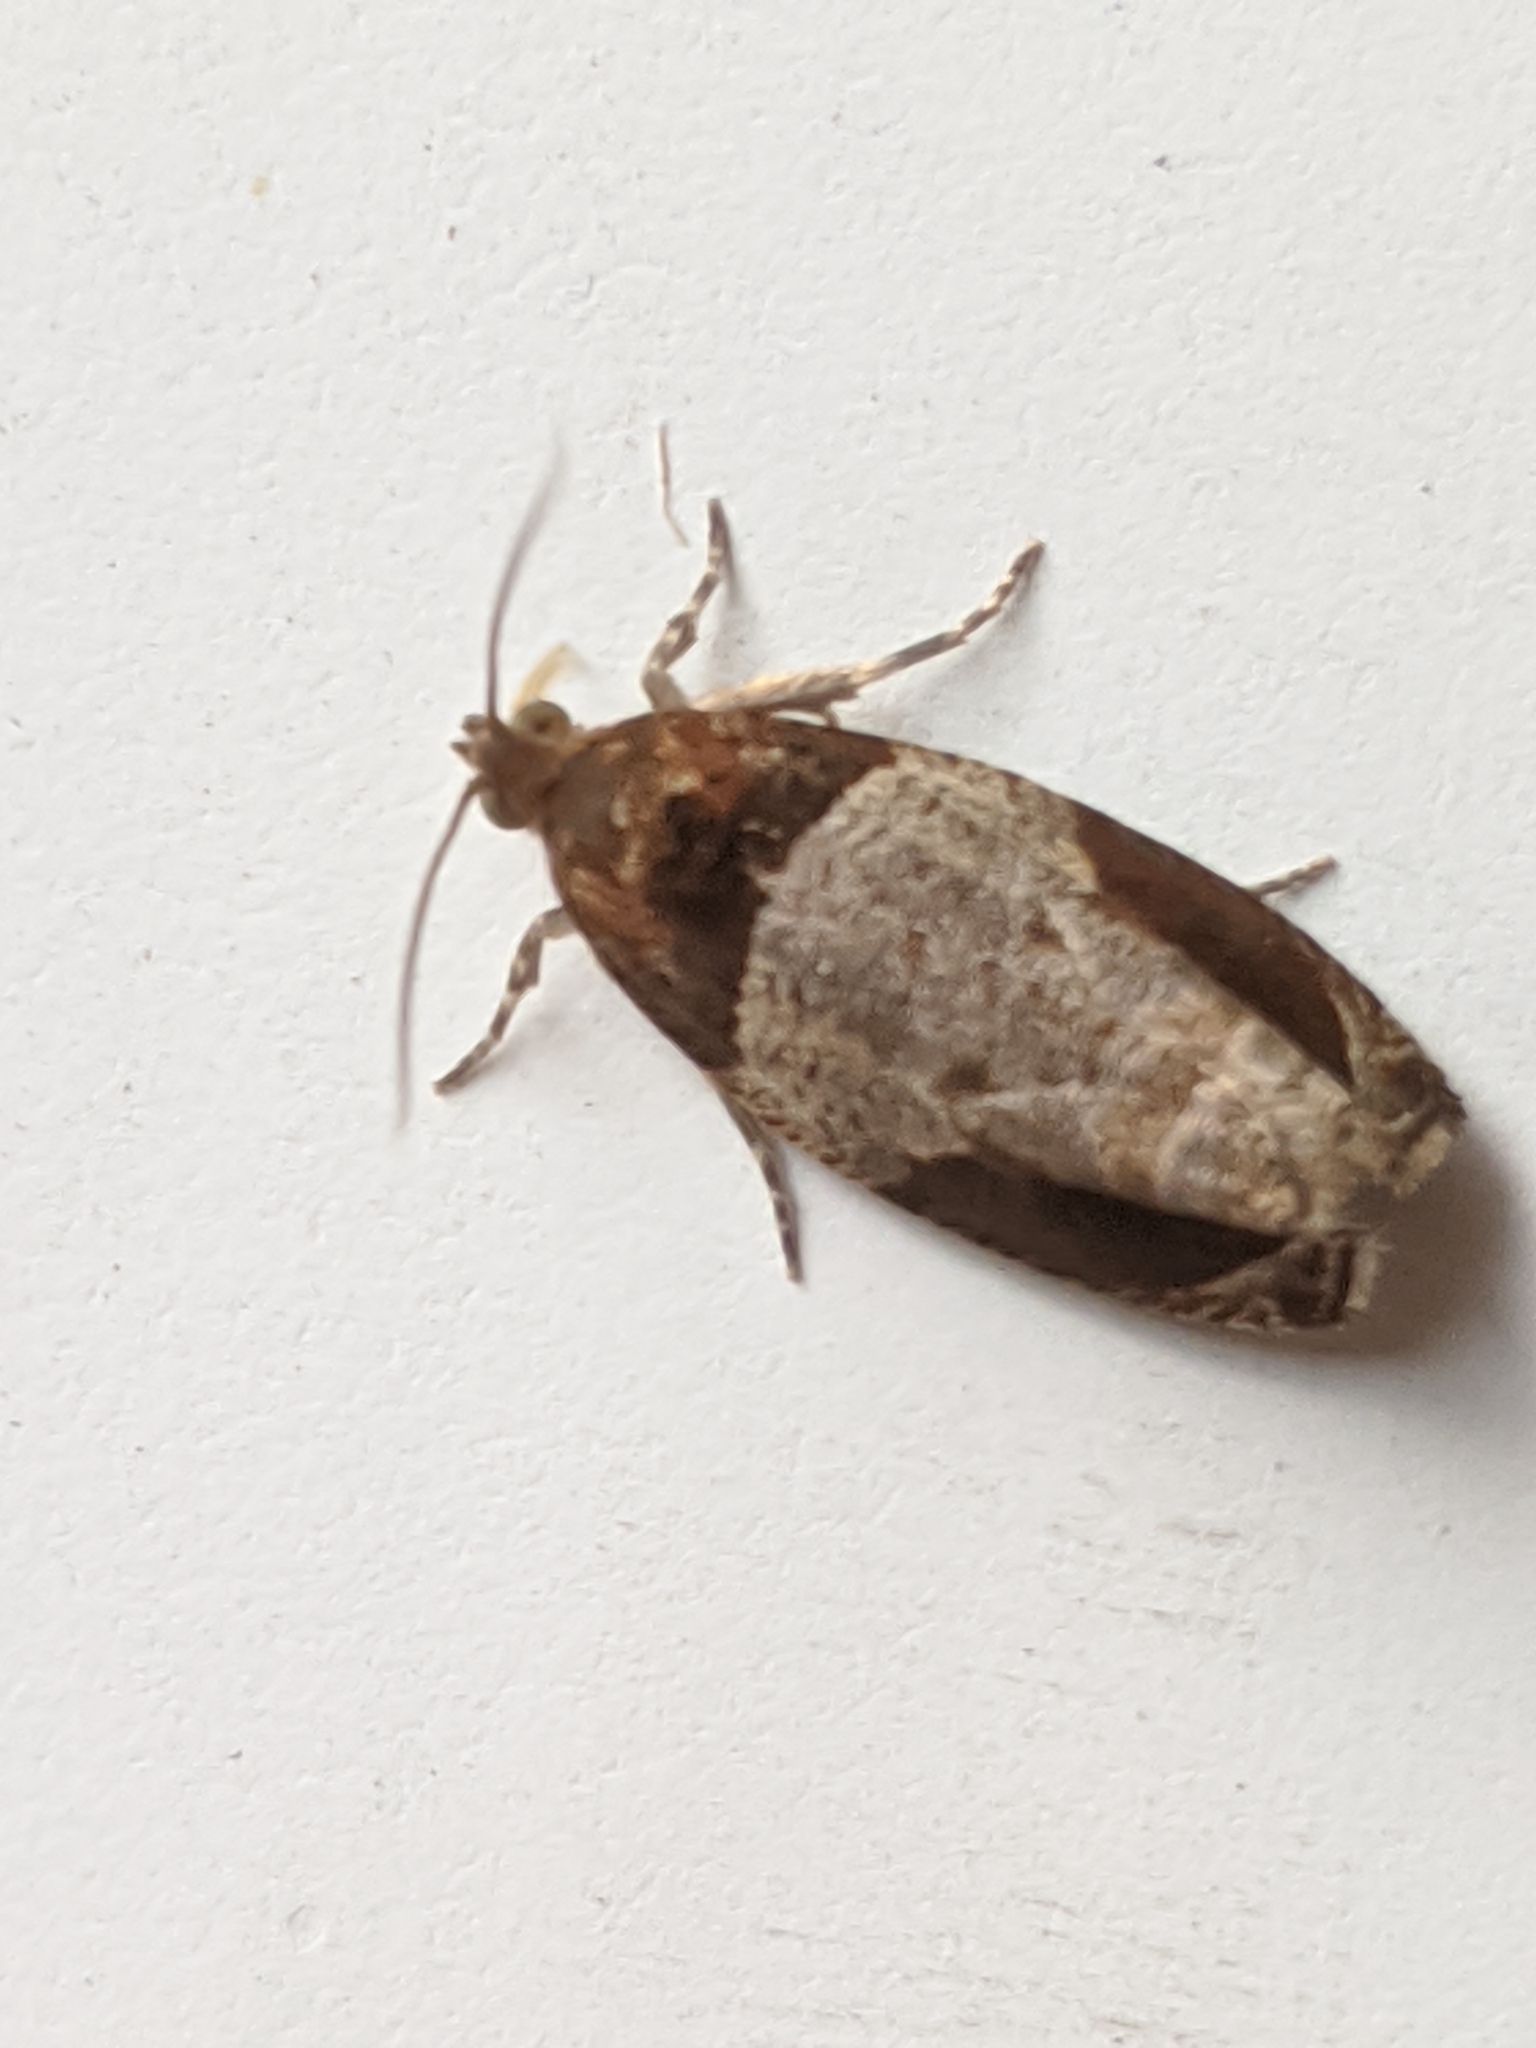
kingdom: Animalia
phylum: Arthropoda
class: Insecta
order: Lepidoptera
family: Tortricidae
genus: Olethreutes
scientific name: Olethreutes ferriferana
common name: Hydrangea leaftier moth
